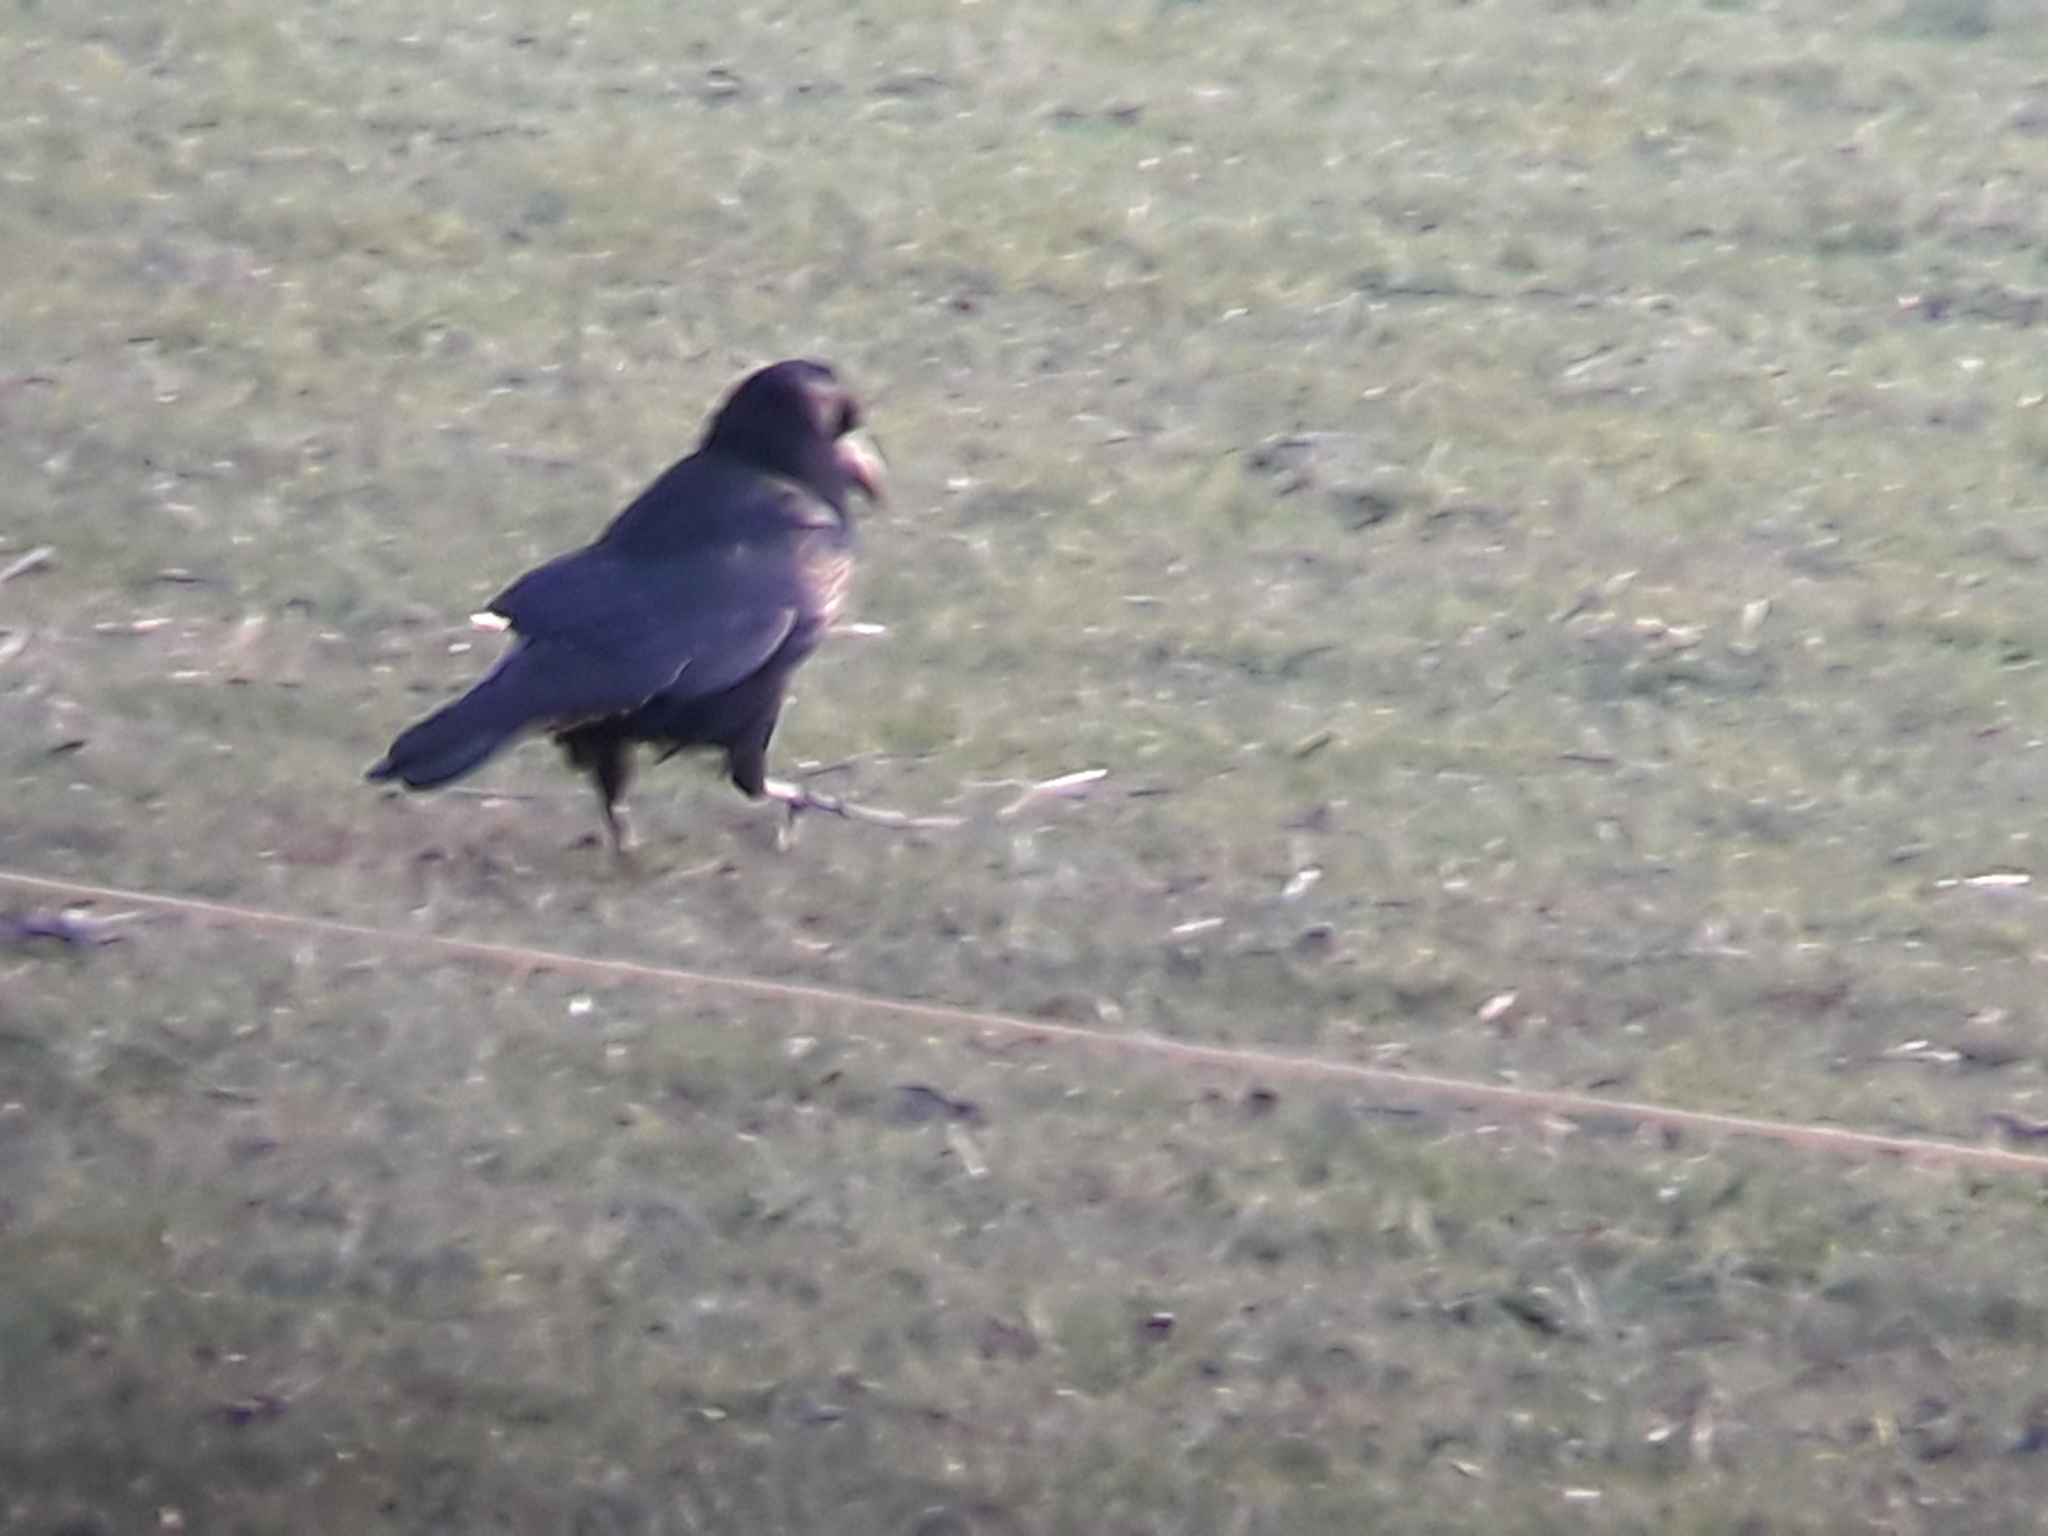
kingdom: Animalia
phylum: Chordata
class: Aves
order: Passeriformes
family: Corvidae
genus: Corvus
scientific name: Corvus frugilegus
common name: Rook
